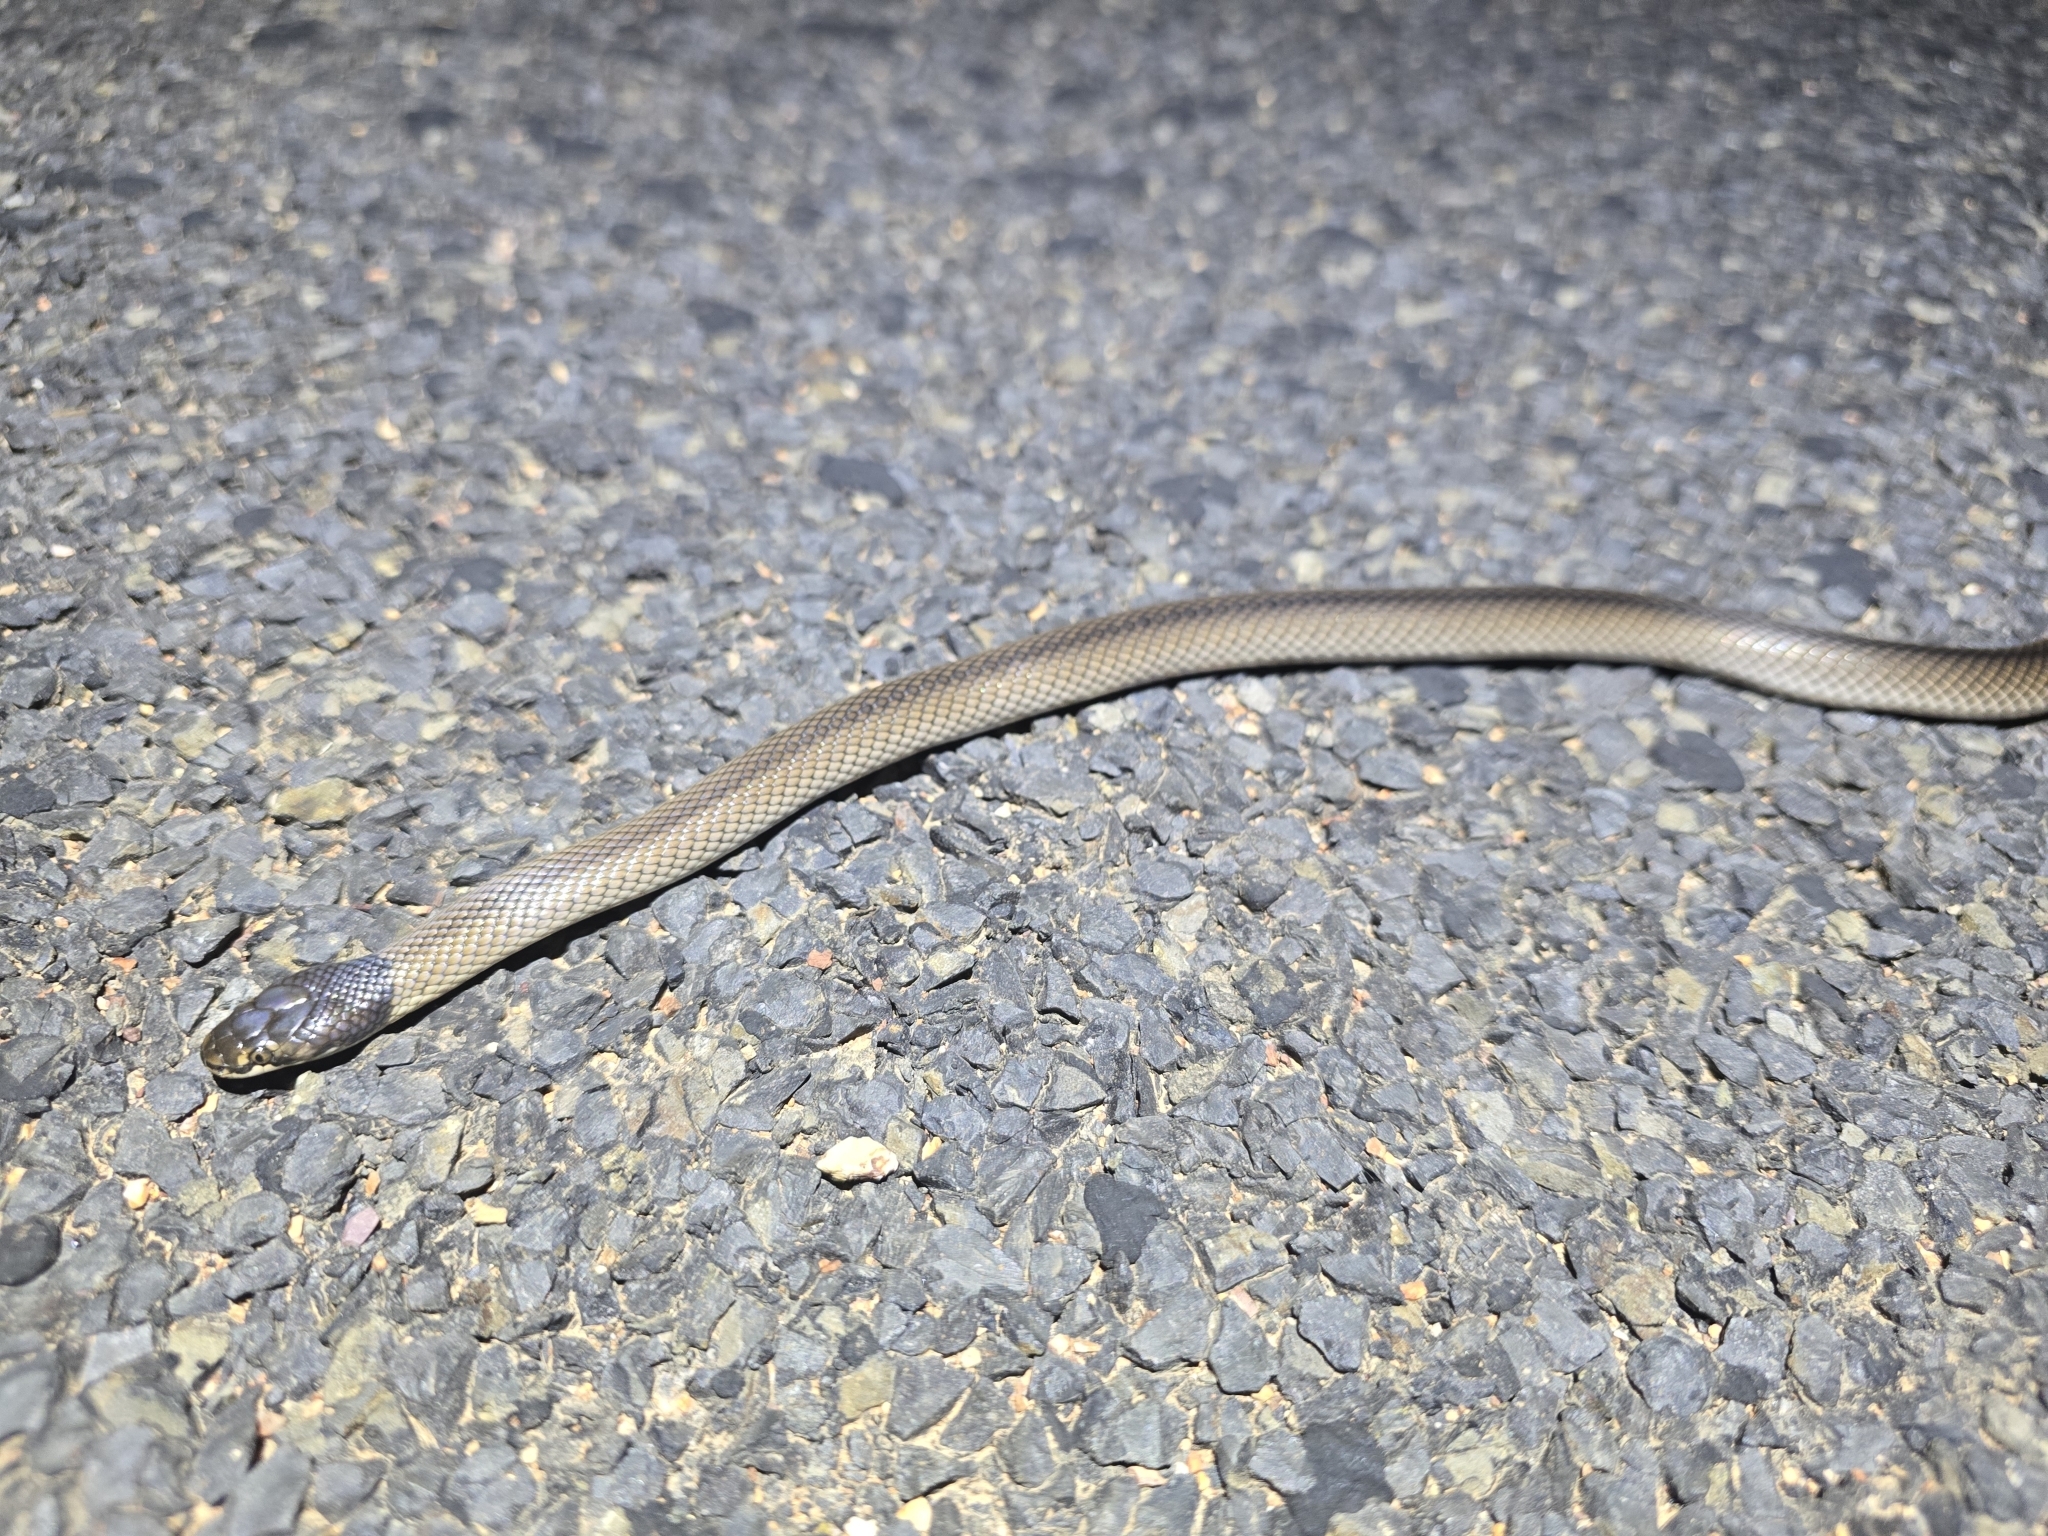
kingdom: Animalia
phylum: Chordata
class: Squamata
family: Elapidae
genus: Suta
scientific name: Suta suta
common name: Curl snake
